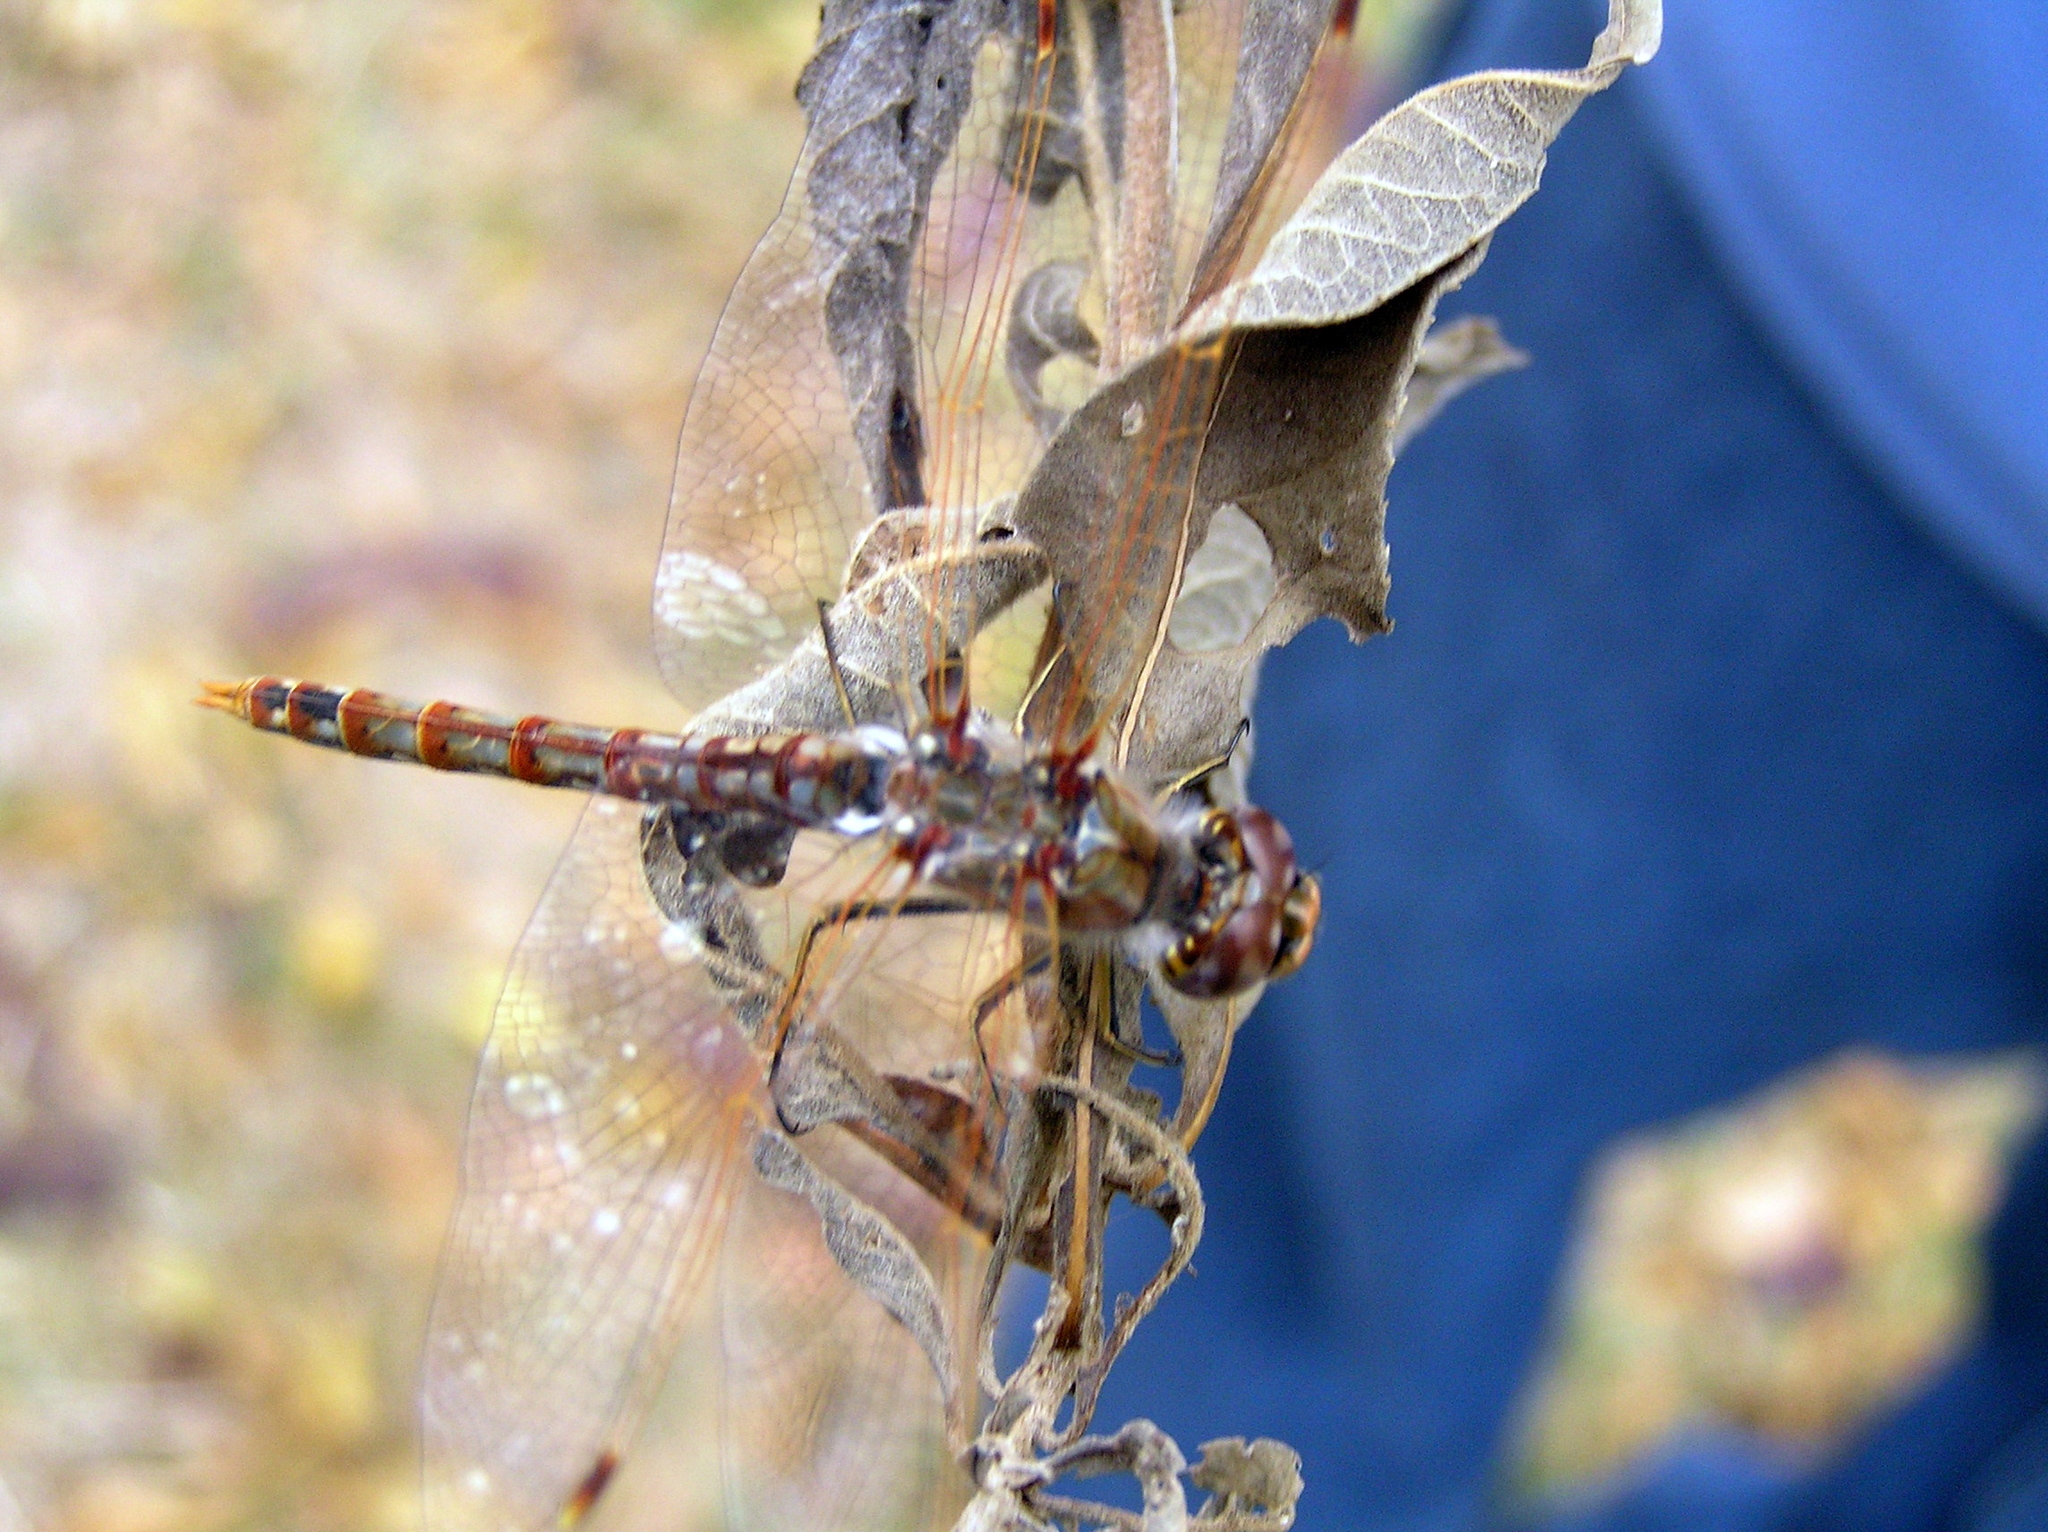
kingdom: Animalia
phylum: Arthropoda
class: Insecta
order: Odonata
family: Libellulidae
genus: Sympetrum
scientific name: Sympetrum corruptum
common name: Variegated meadowhawk
